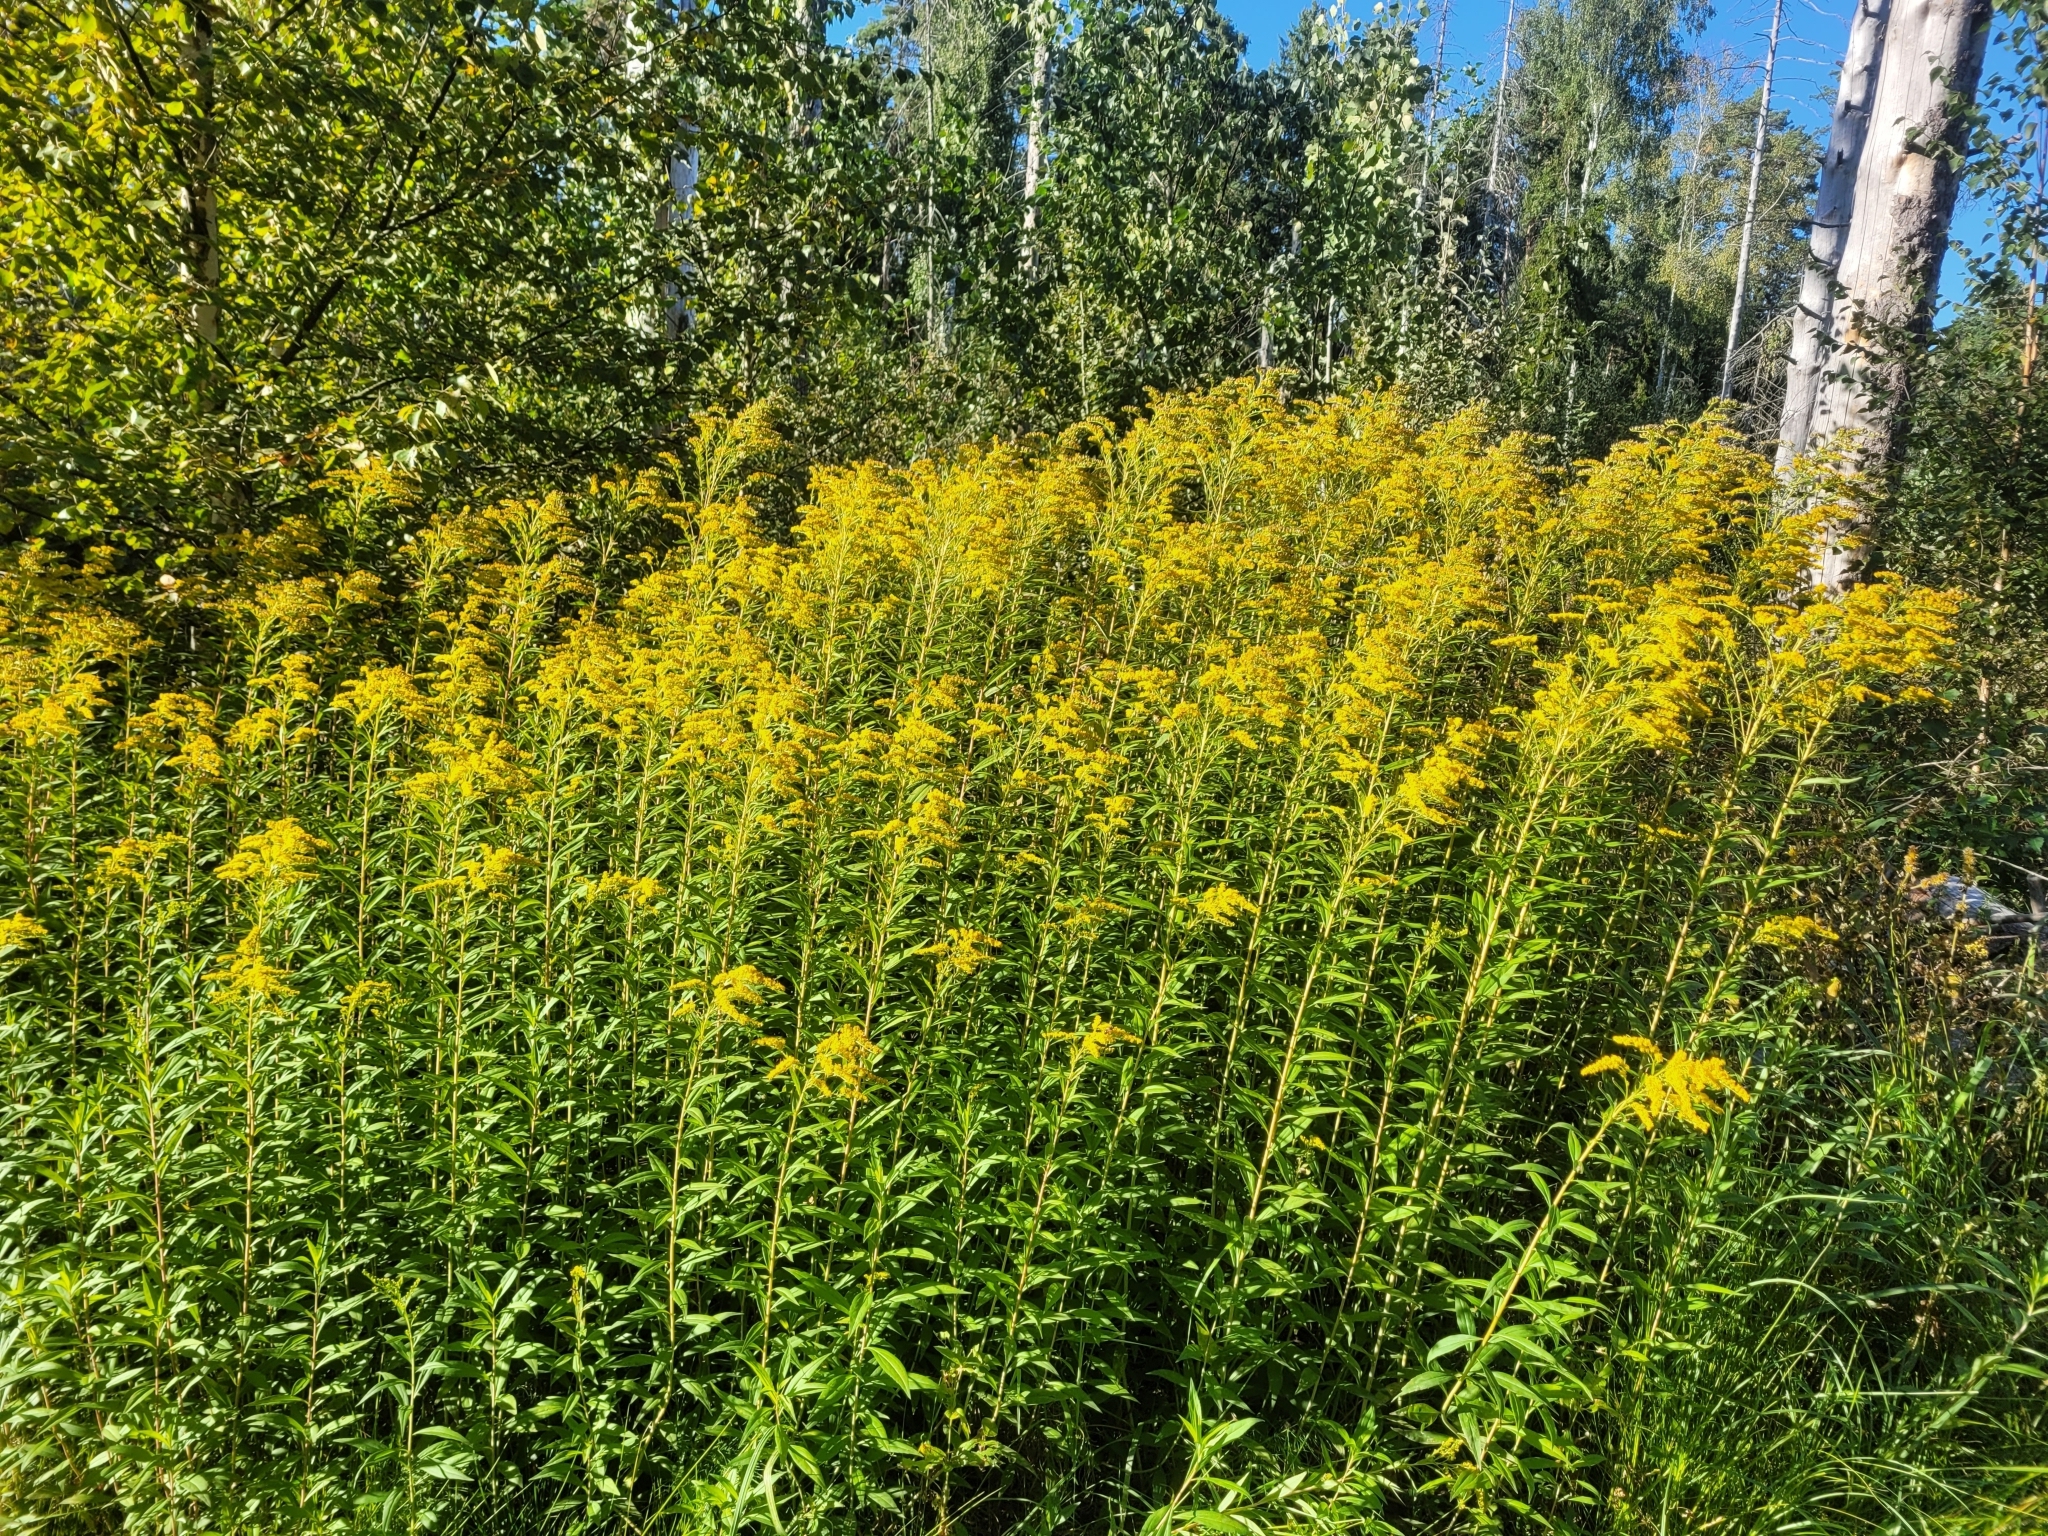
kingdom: Plantae
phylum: Tracheophyta
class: Magnoliopsida
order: Asterales
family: Asteraceae
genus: Solidago
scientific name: Solidago gigantea
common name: Giant goldenrod
